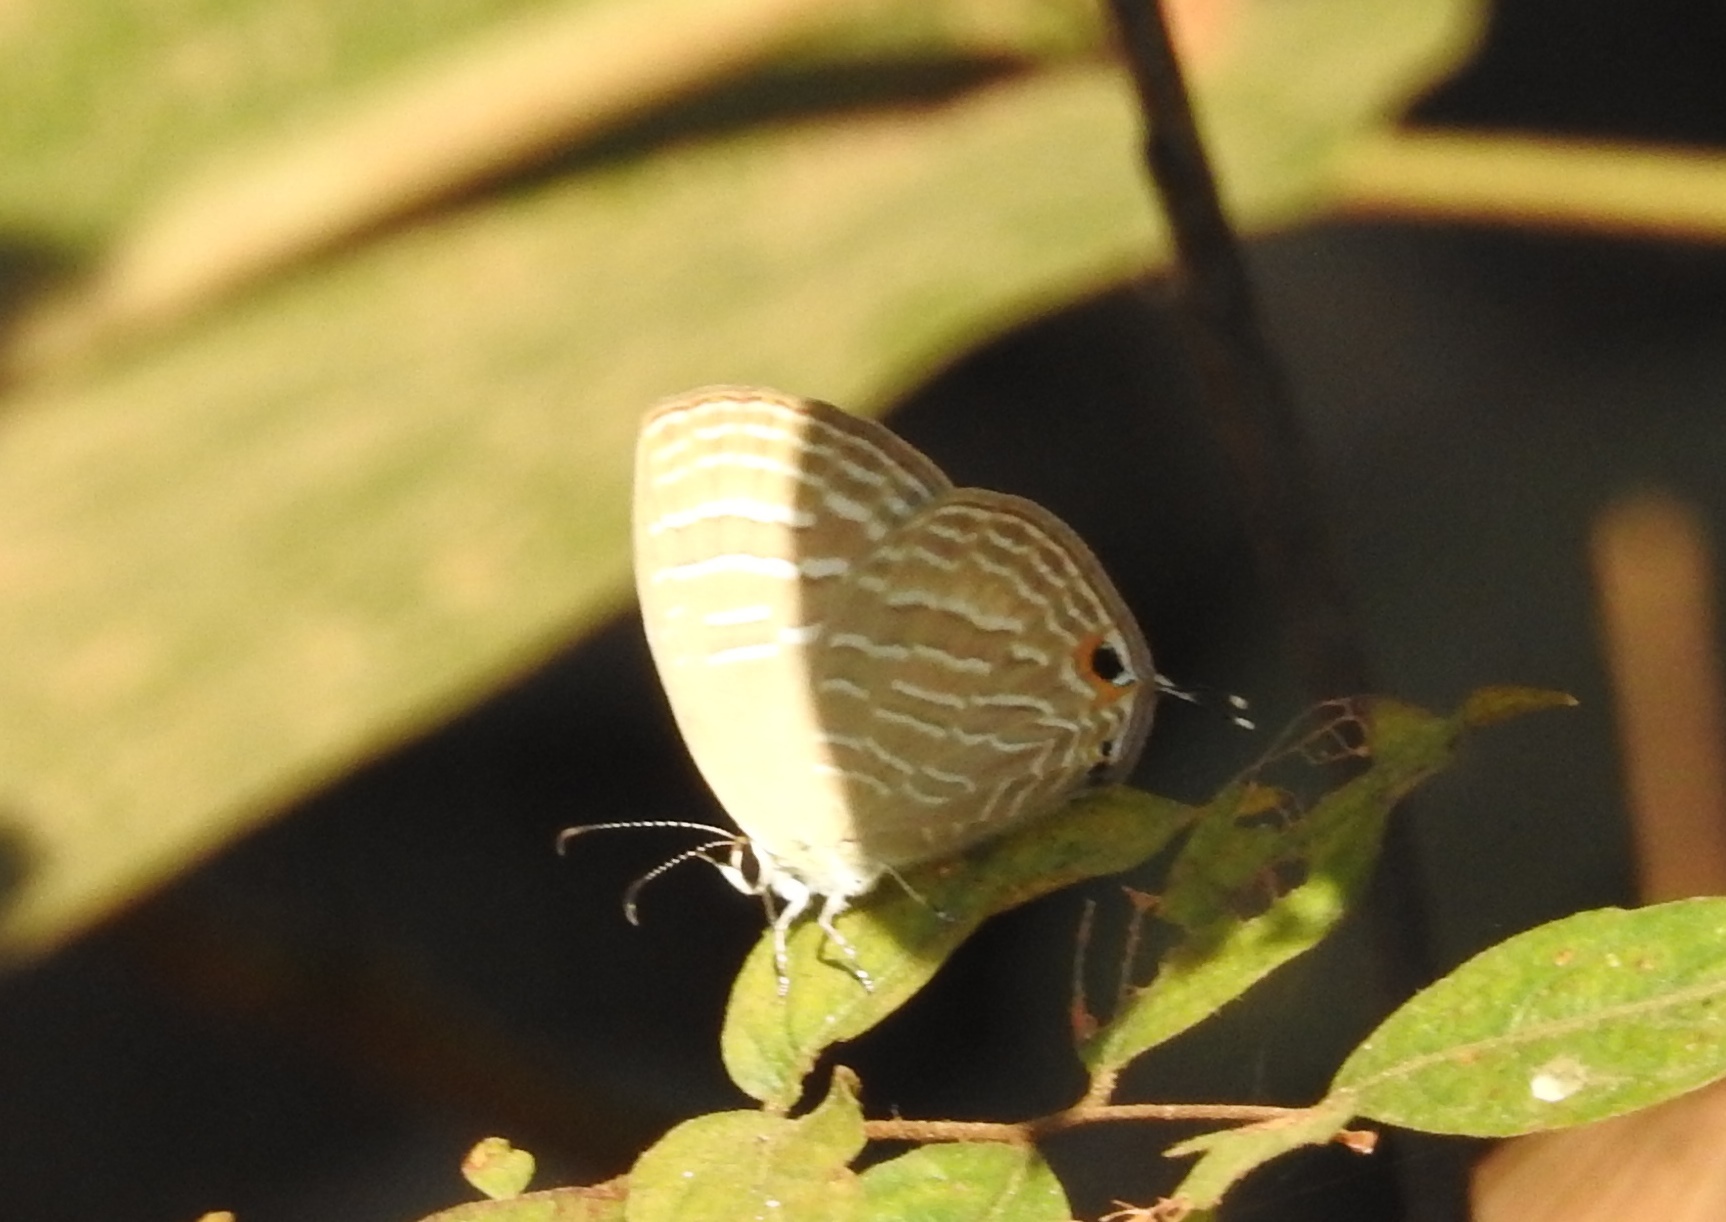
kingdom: Animalia
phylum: Arthropoda
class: Insecta
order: Lepidoptera
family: Lycaenidae
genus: Jamides
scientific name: Jamides celeno
